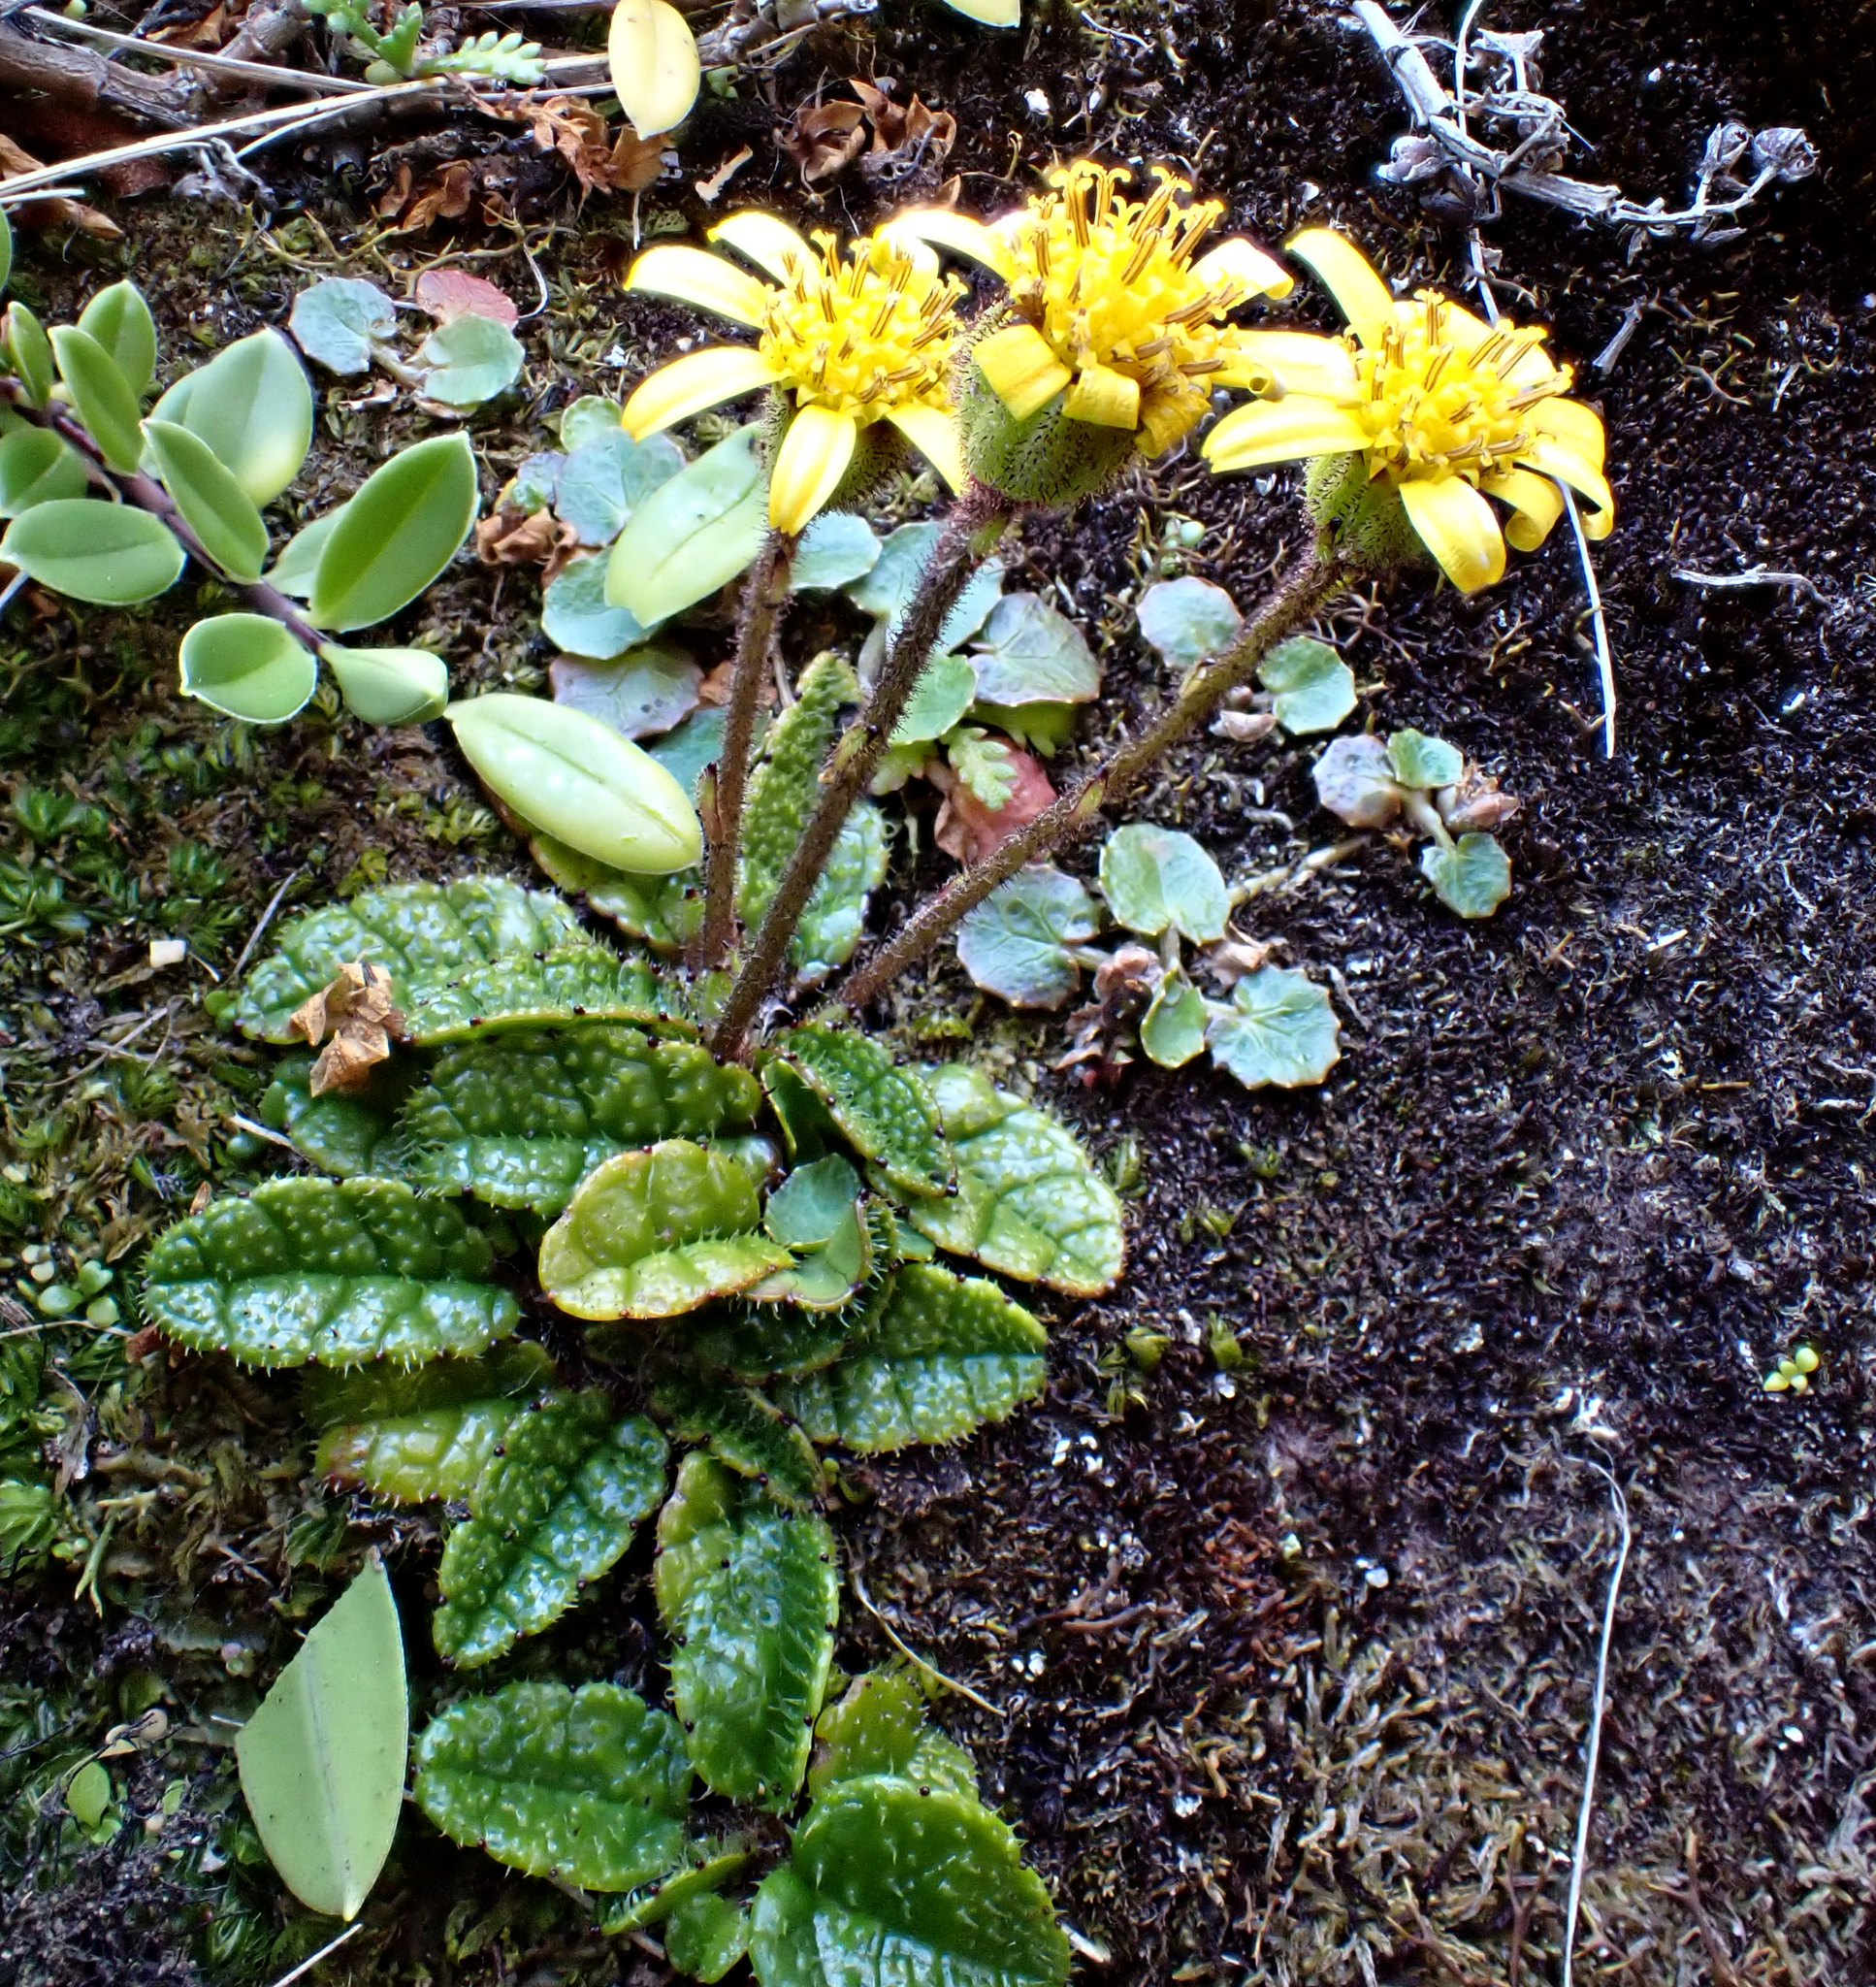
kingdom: Plantae
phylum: Tracheophyta
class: Magnoliopsida
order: Asterales
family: Asteraceae
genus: Brachyglottis
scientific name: Brachyglottis traversii
